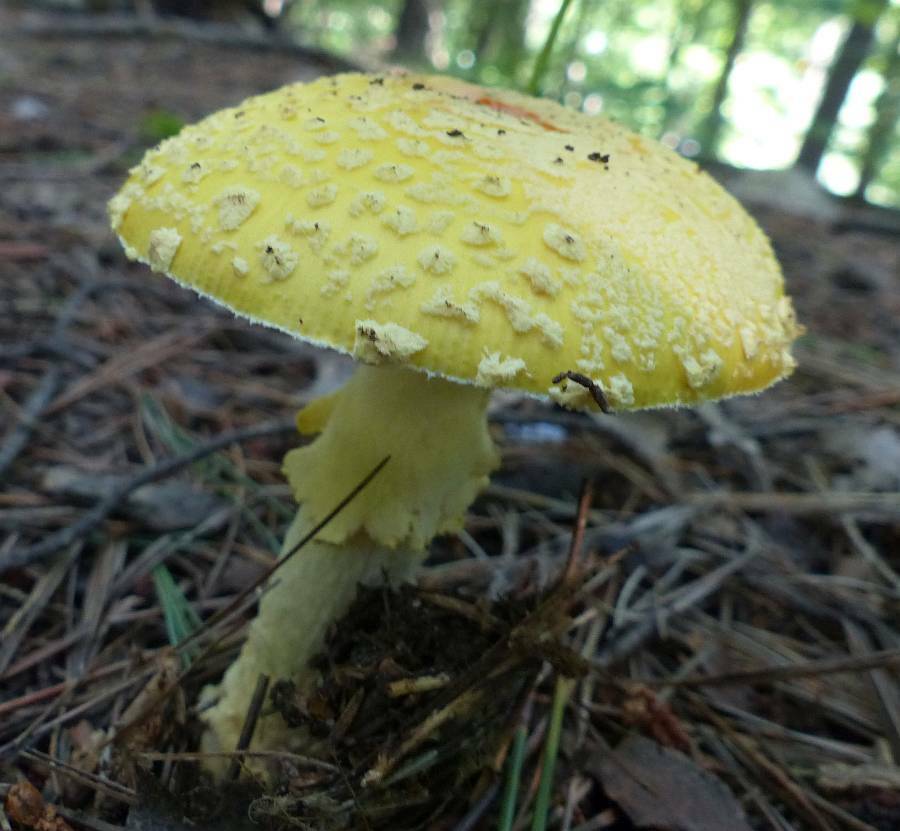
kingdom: Fungi
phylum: Basidiomycota
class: Agaricomycetes
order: Agaricales
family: Amanitaceae
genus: Amanita
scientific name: Amanita muscaria
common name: Fly agaric
